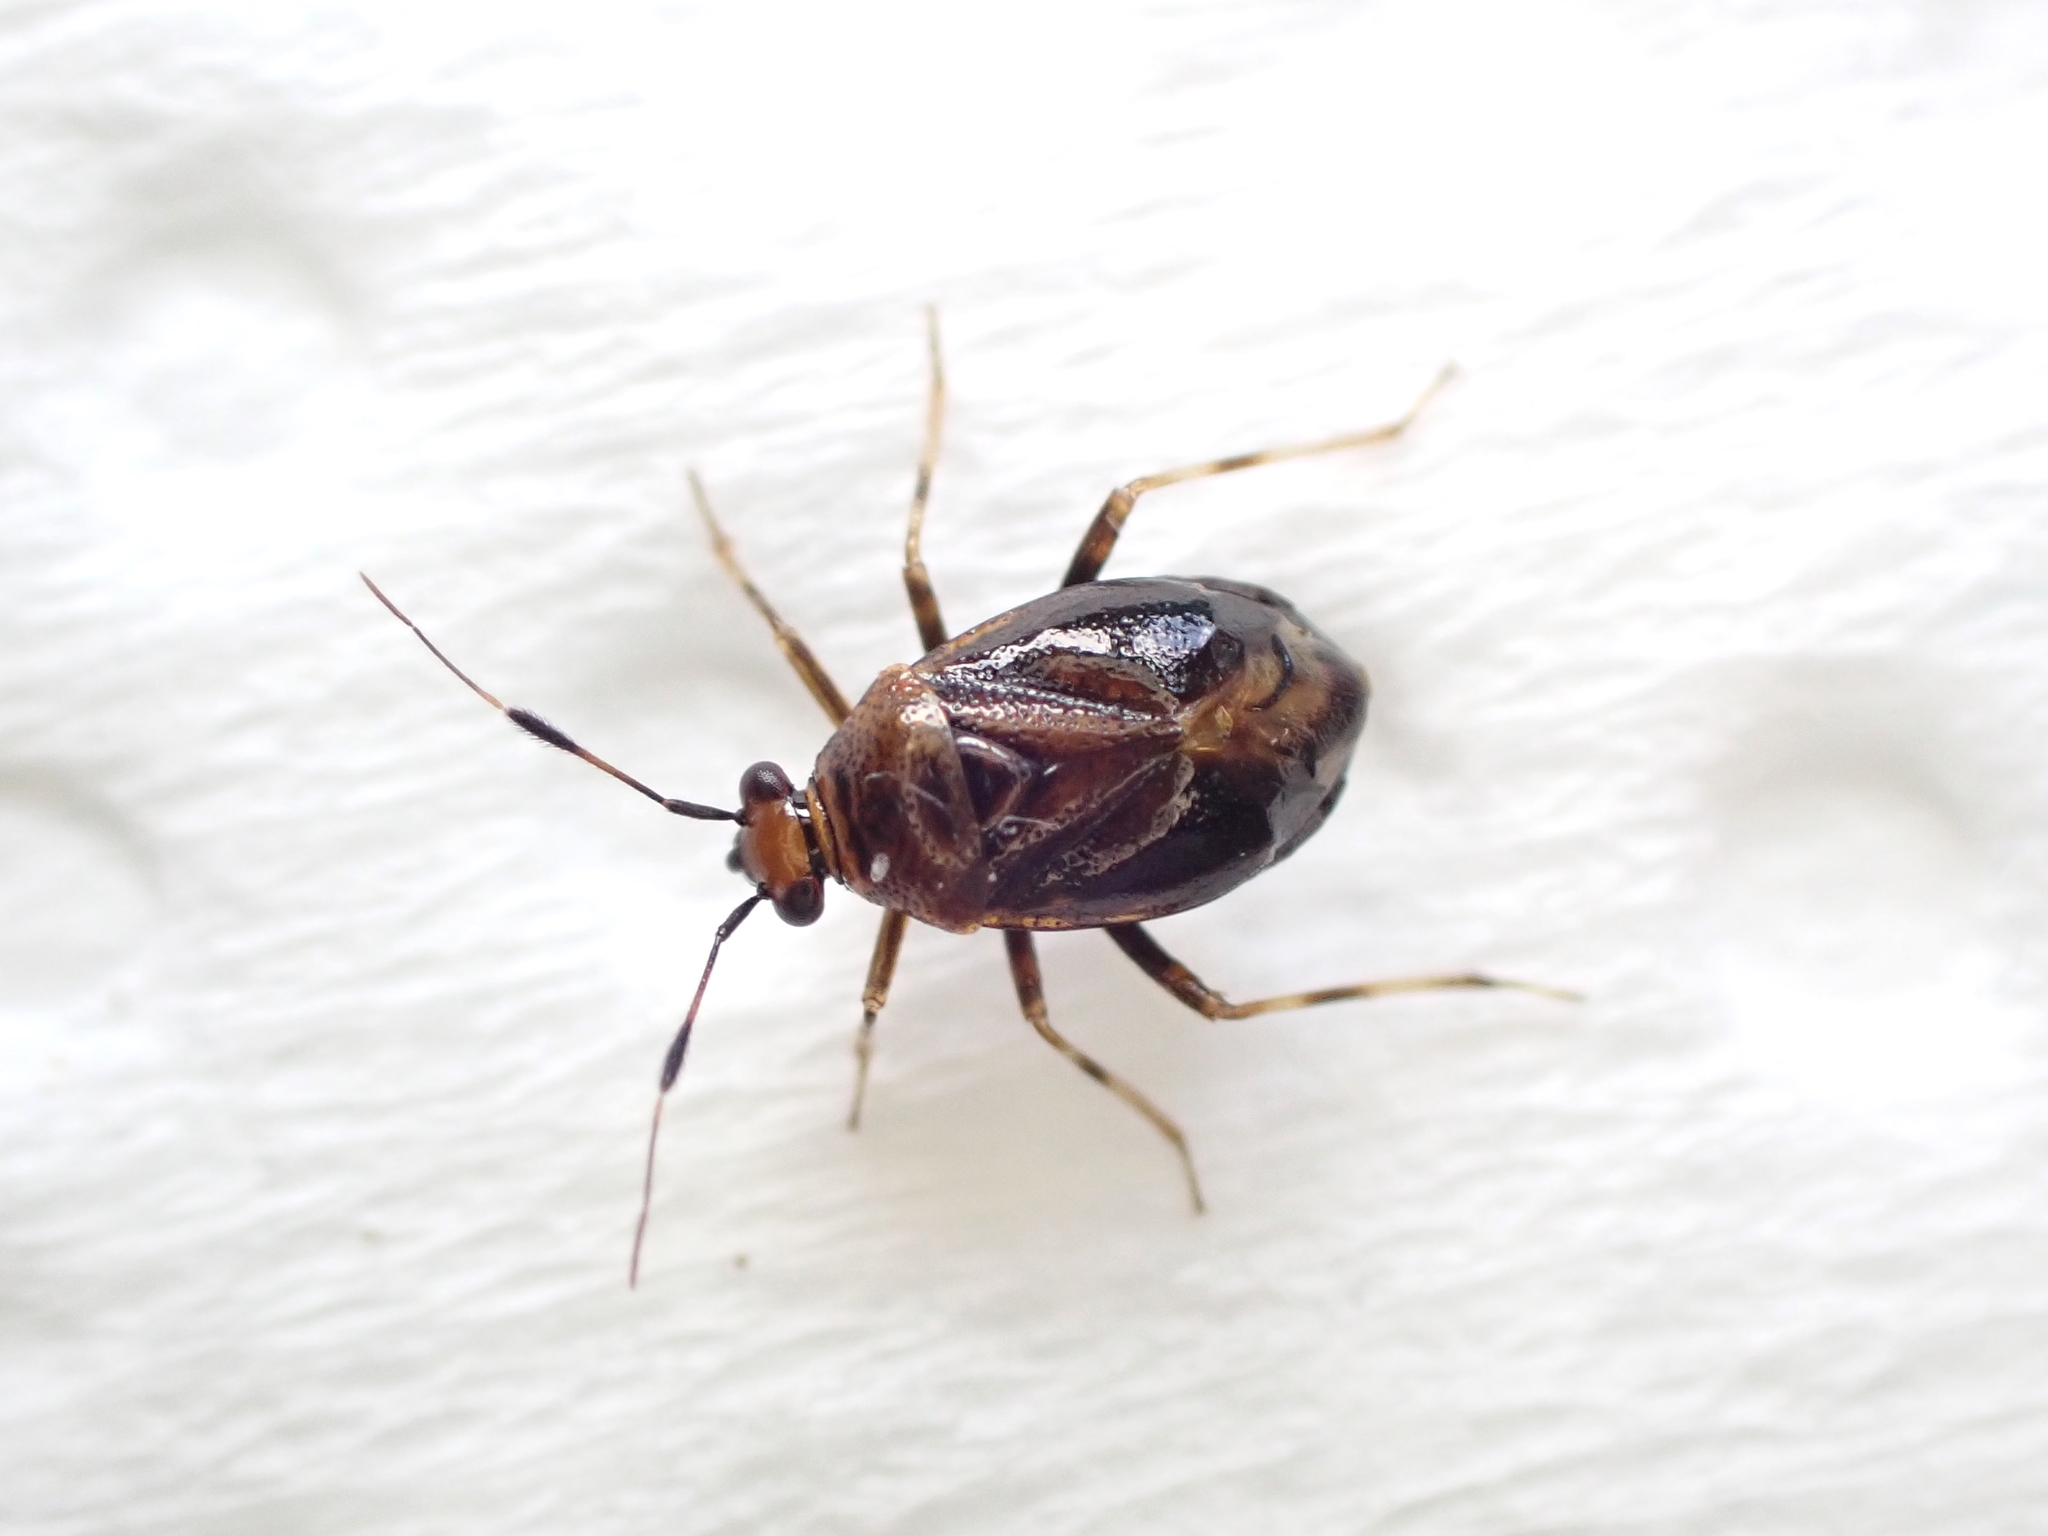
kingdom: Animalia
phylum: Arthropoda
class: Insecta
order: Hemiptera
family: Miridae
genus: Deraeocoris
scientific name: Deraeocoris maoricus
